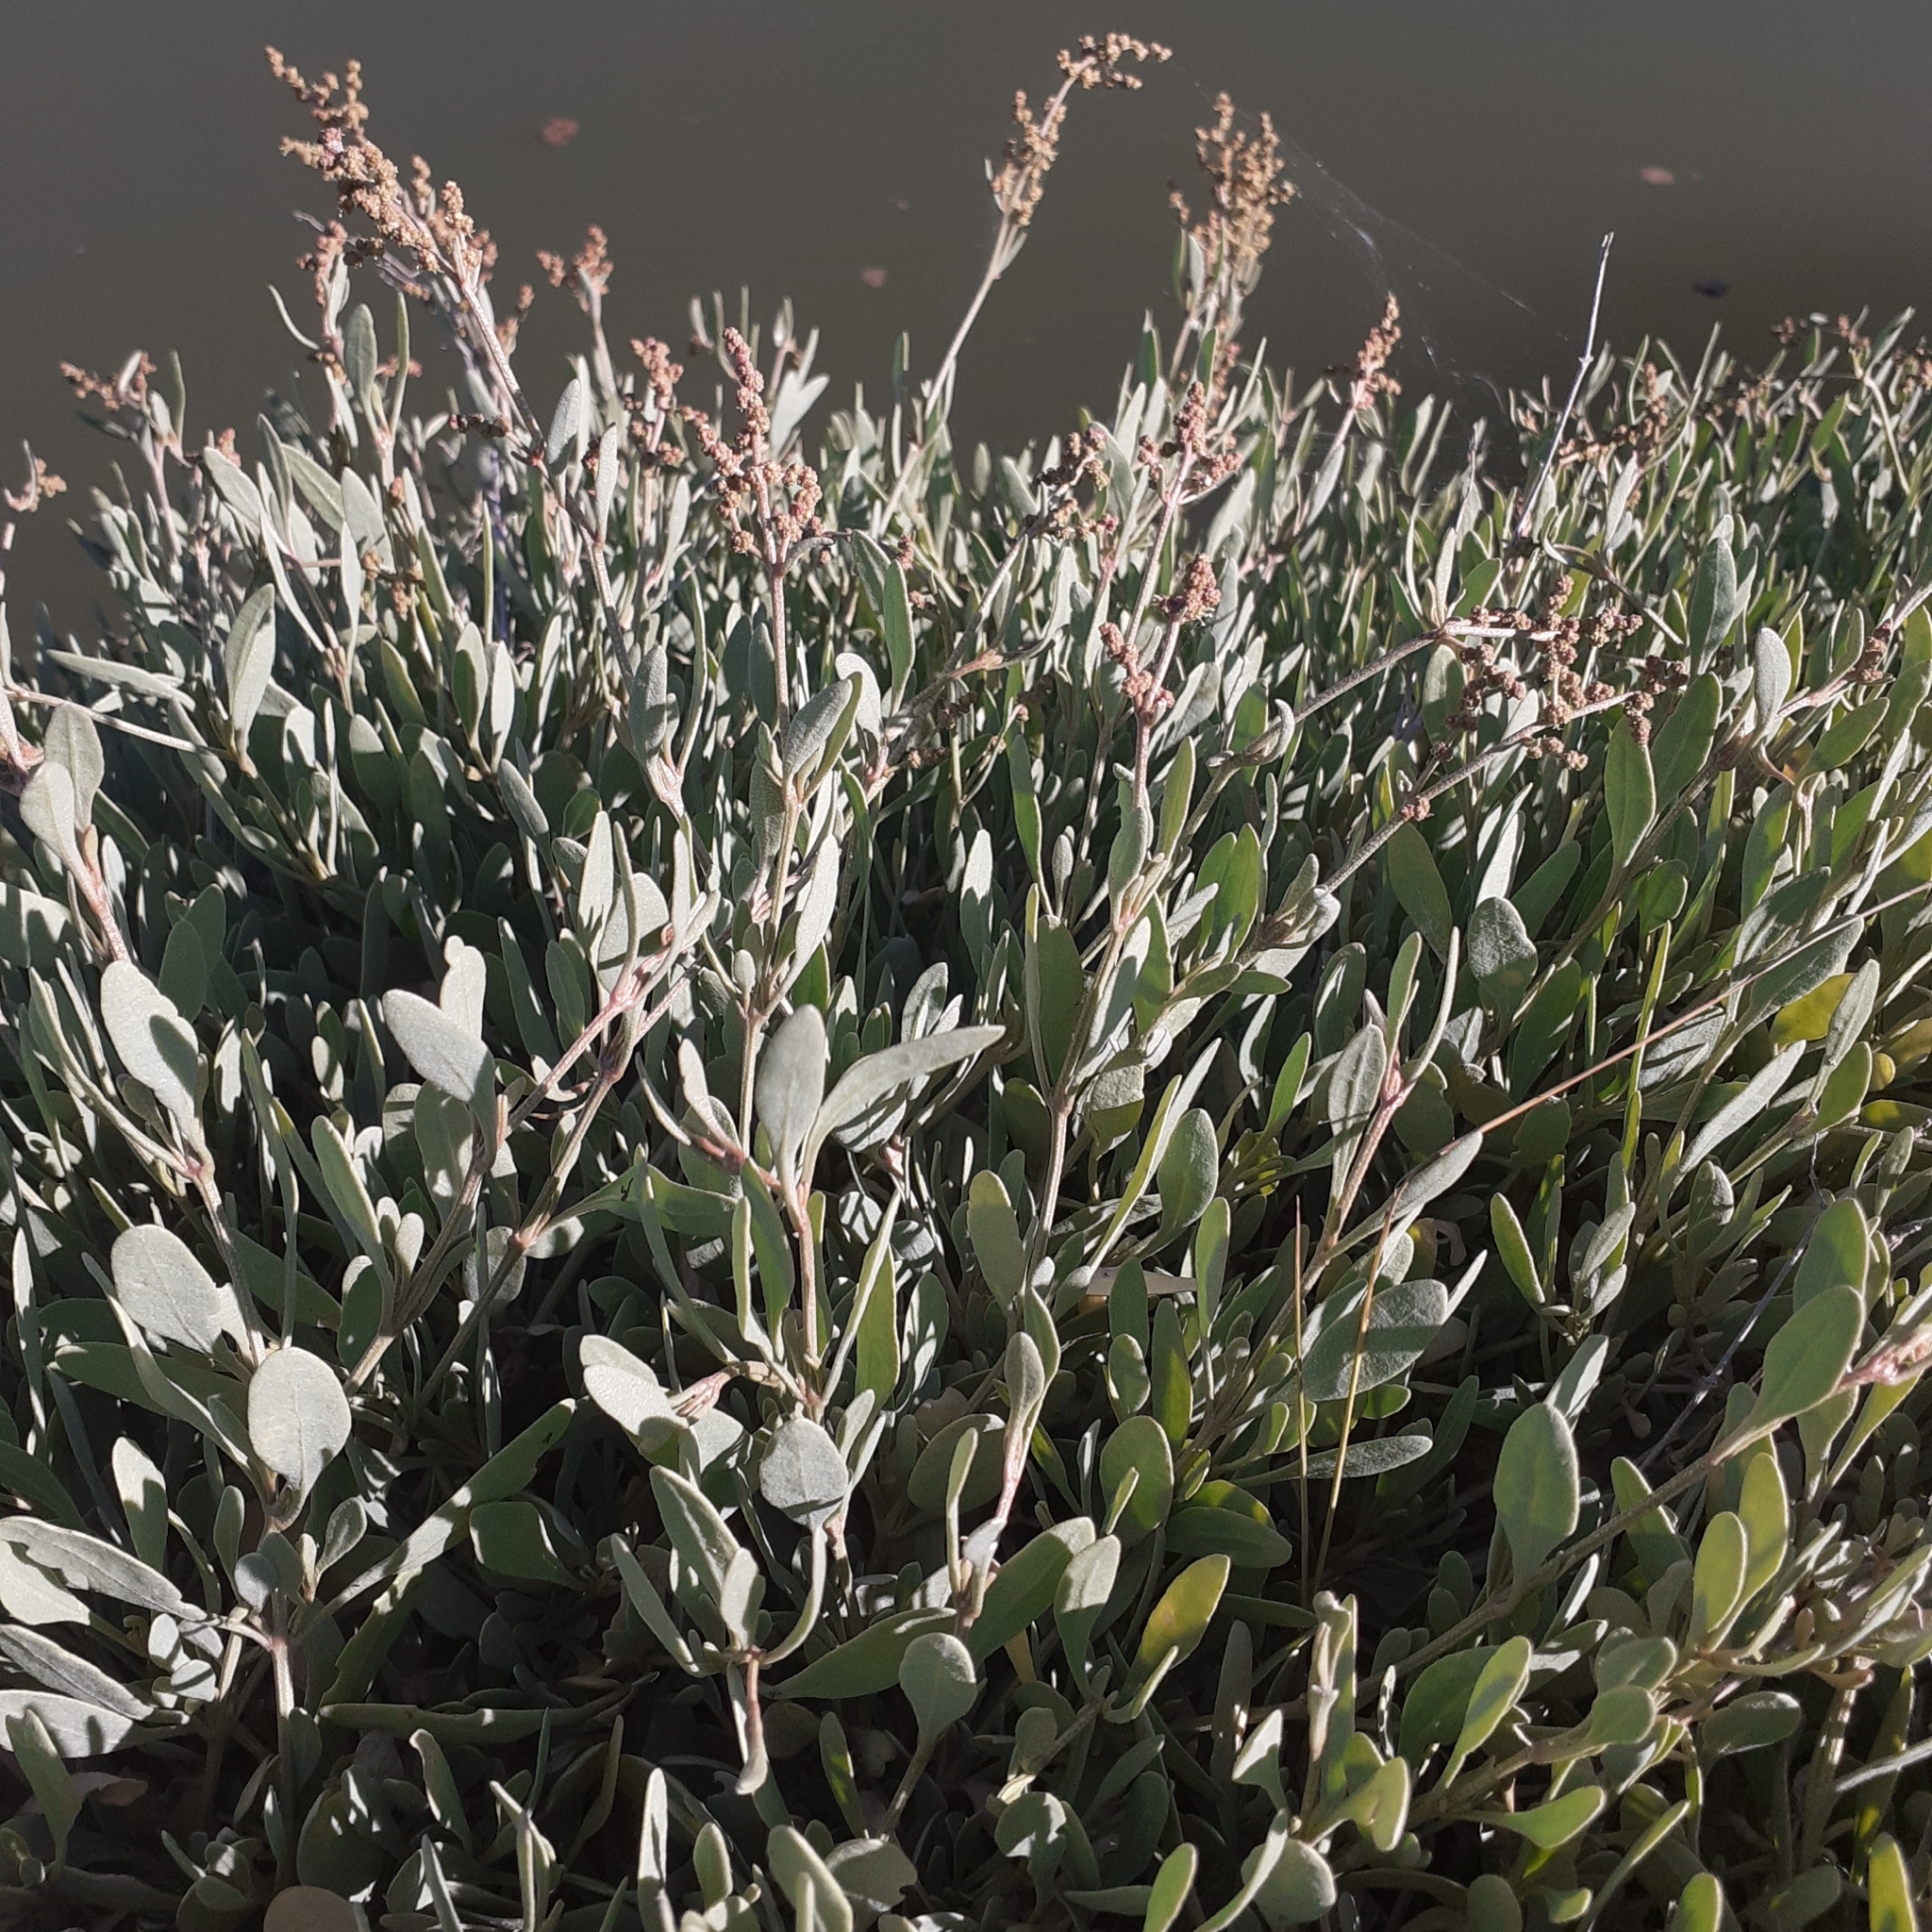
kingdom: Plantae
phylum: Tracheophyta
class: Magnoliopsida
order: Caryophyllales
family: Amaranthaceae
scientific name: Amaranthaceae
